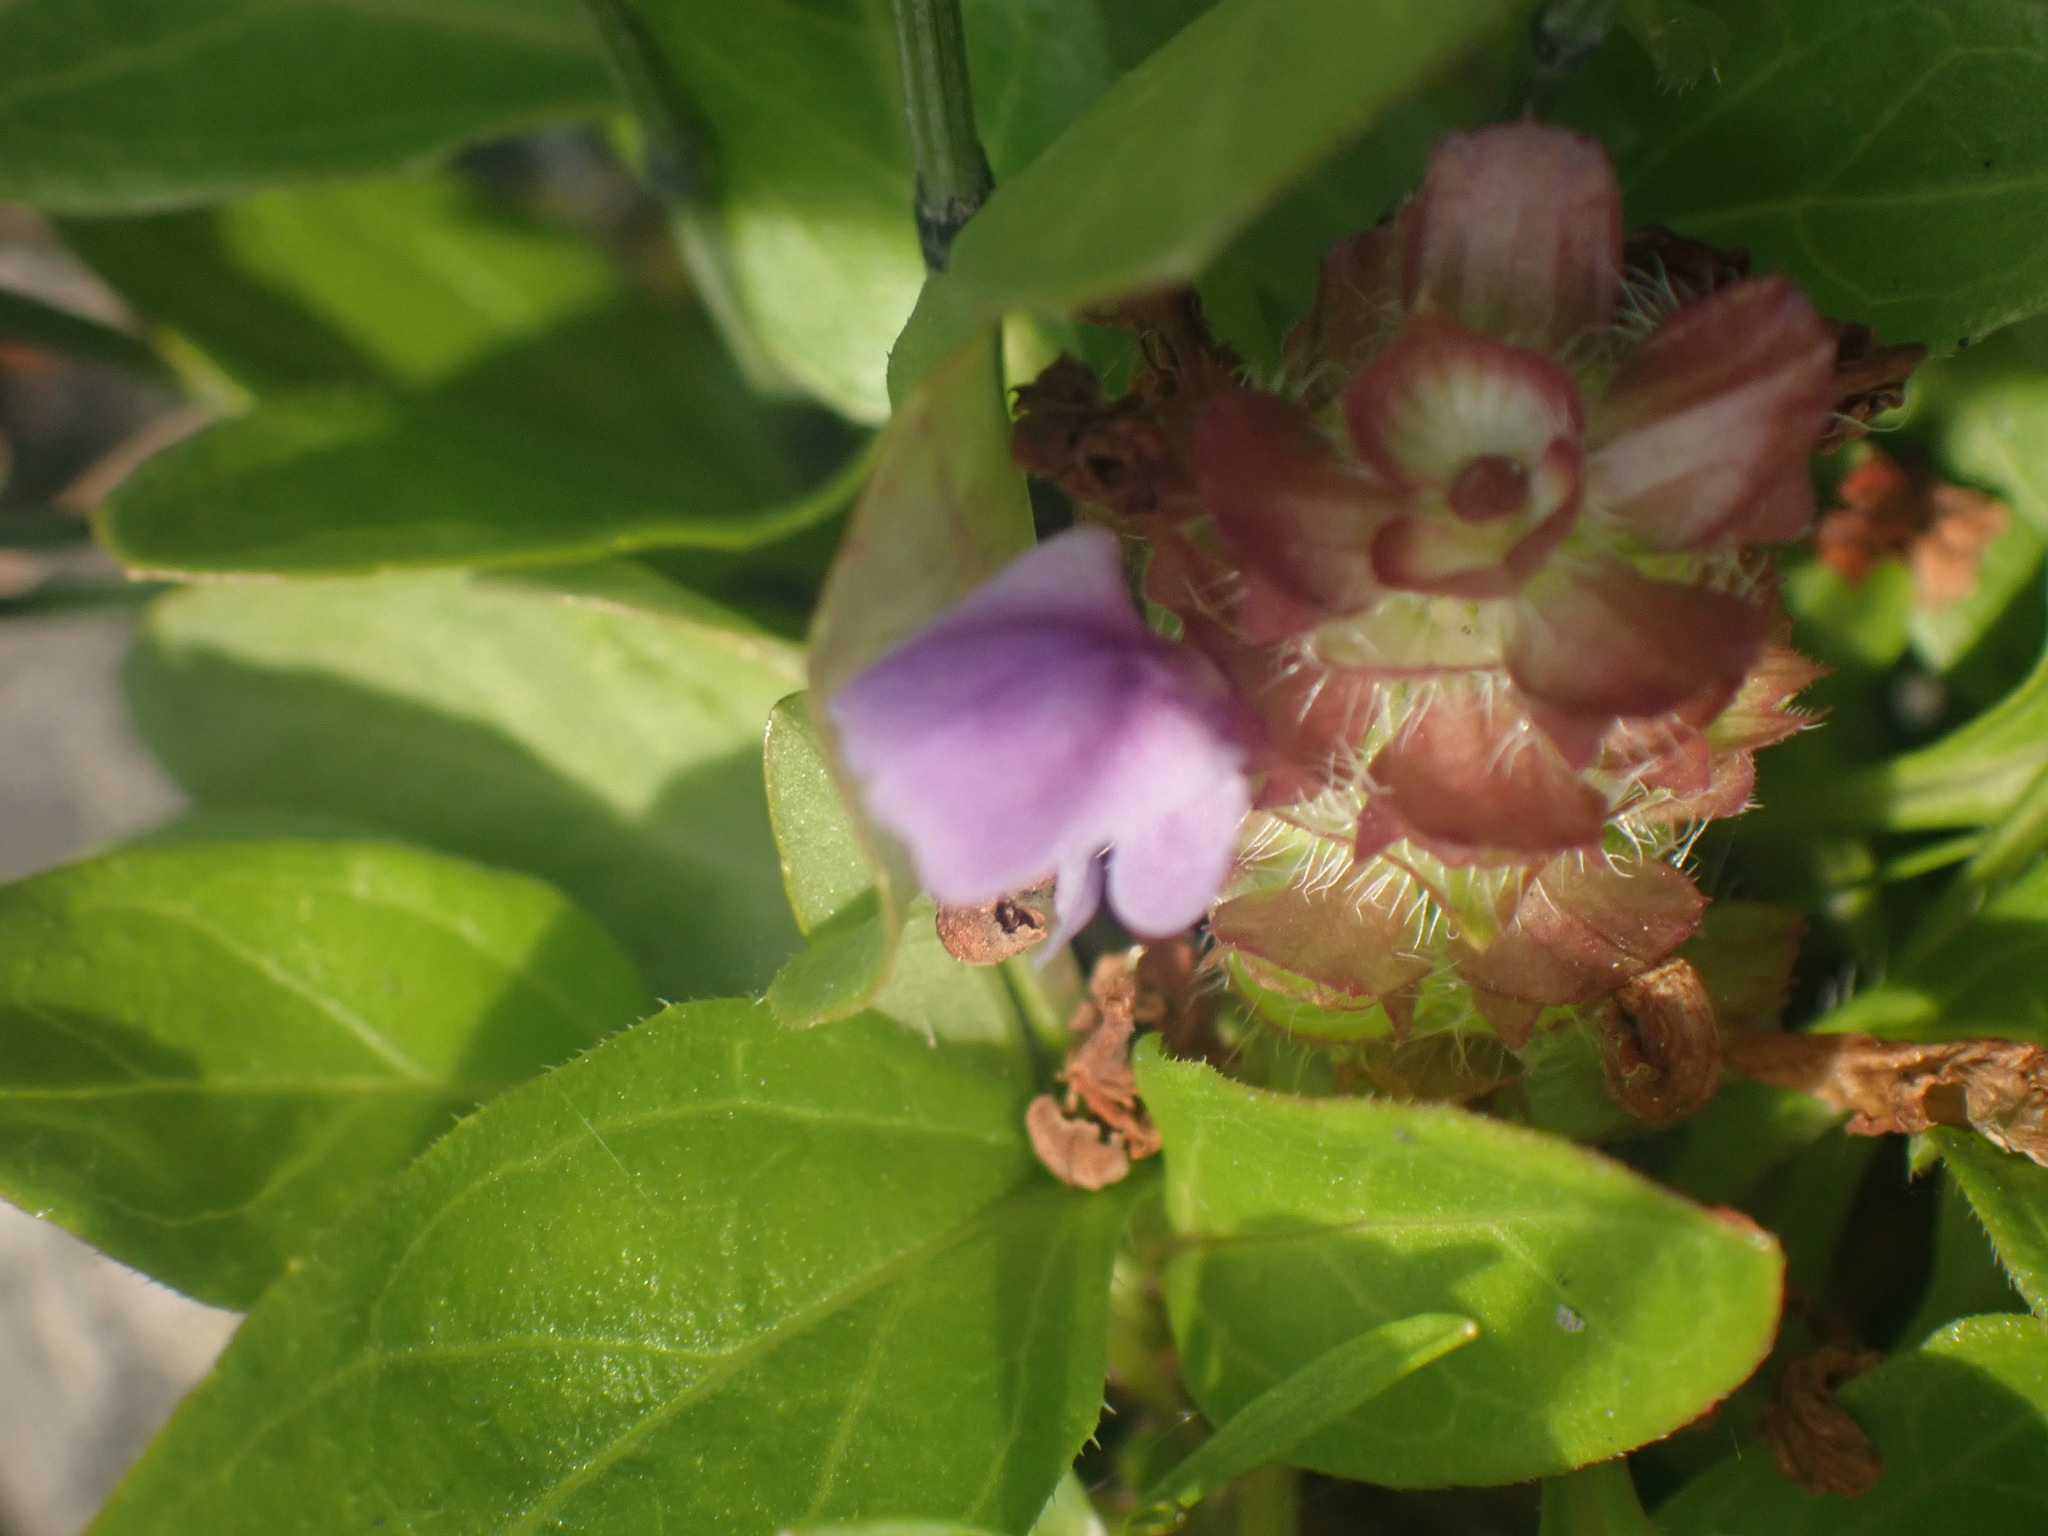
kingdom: Plantae
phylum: Tracheophyta
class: Magnoliopsida
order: Lamiales
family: Lamiaceae
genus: Prunella
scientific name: Prunella vulgaris
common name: Heal-all
